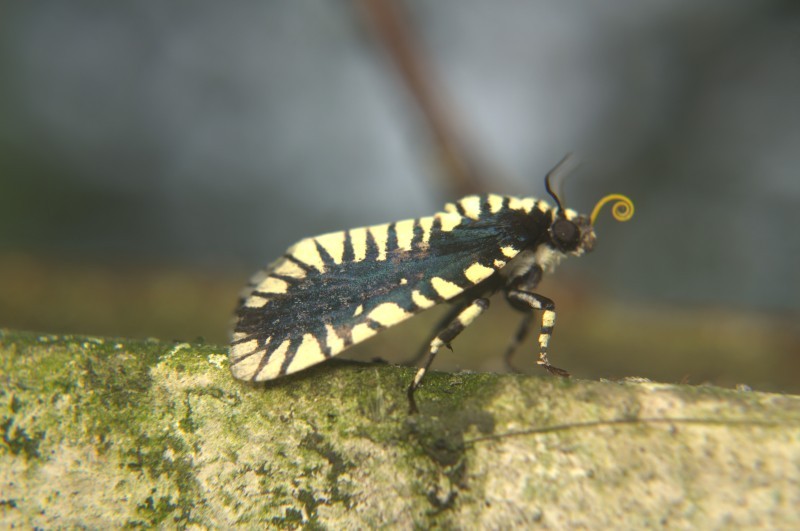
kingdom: Animalia
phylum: Arthropoda
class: Insecta
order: Lepidoptera
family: Noctuidae
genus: Apsarasa
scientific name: Apsarasa radians
